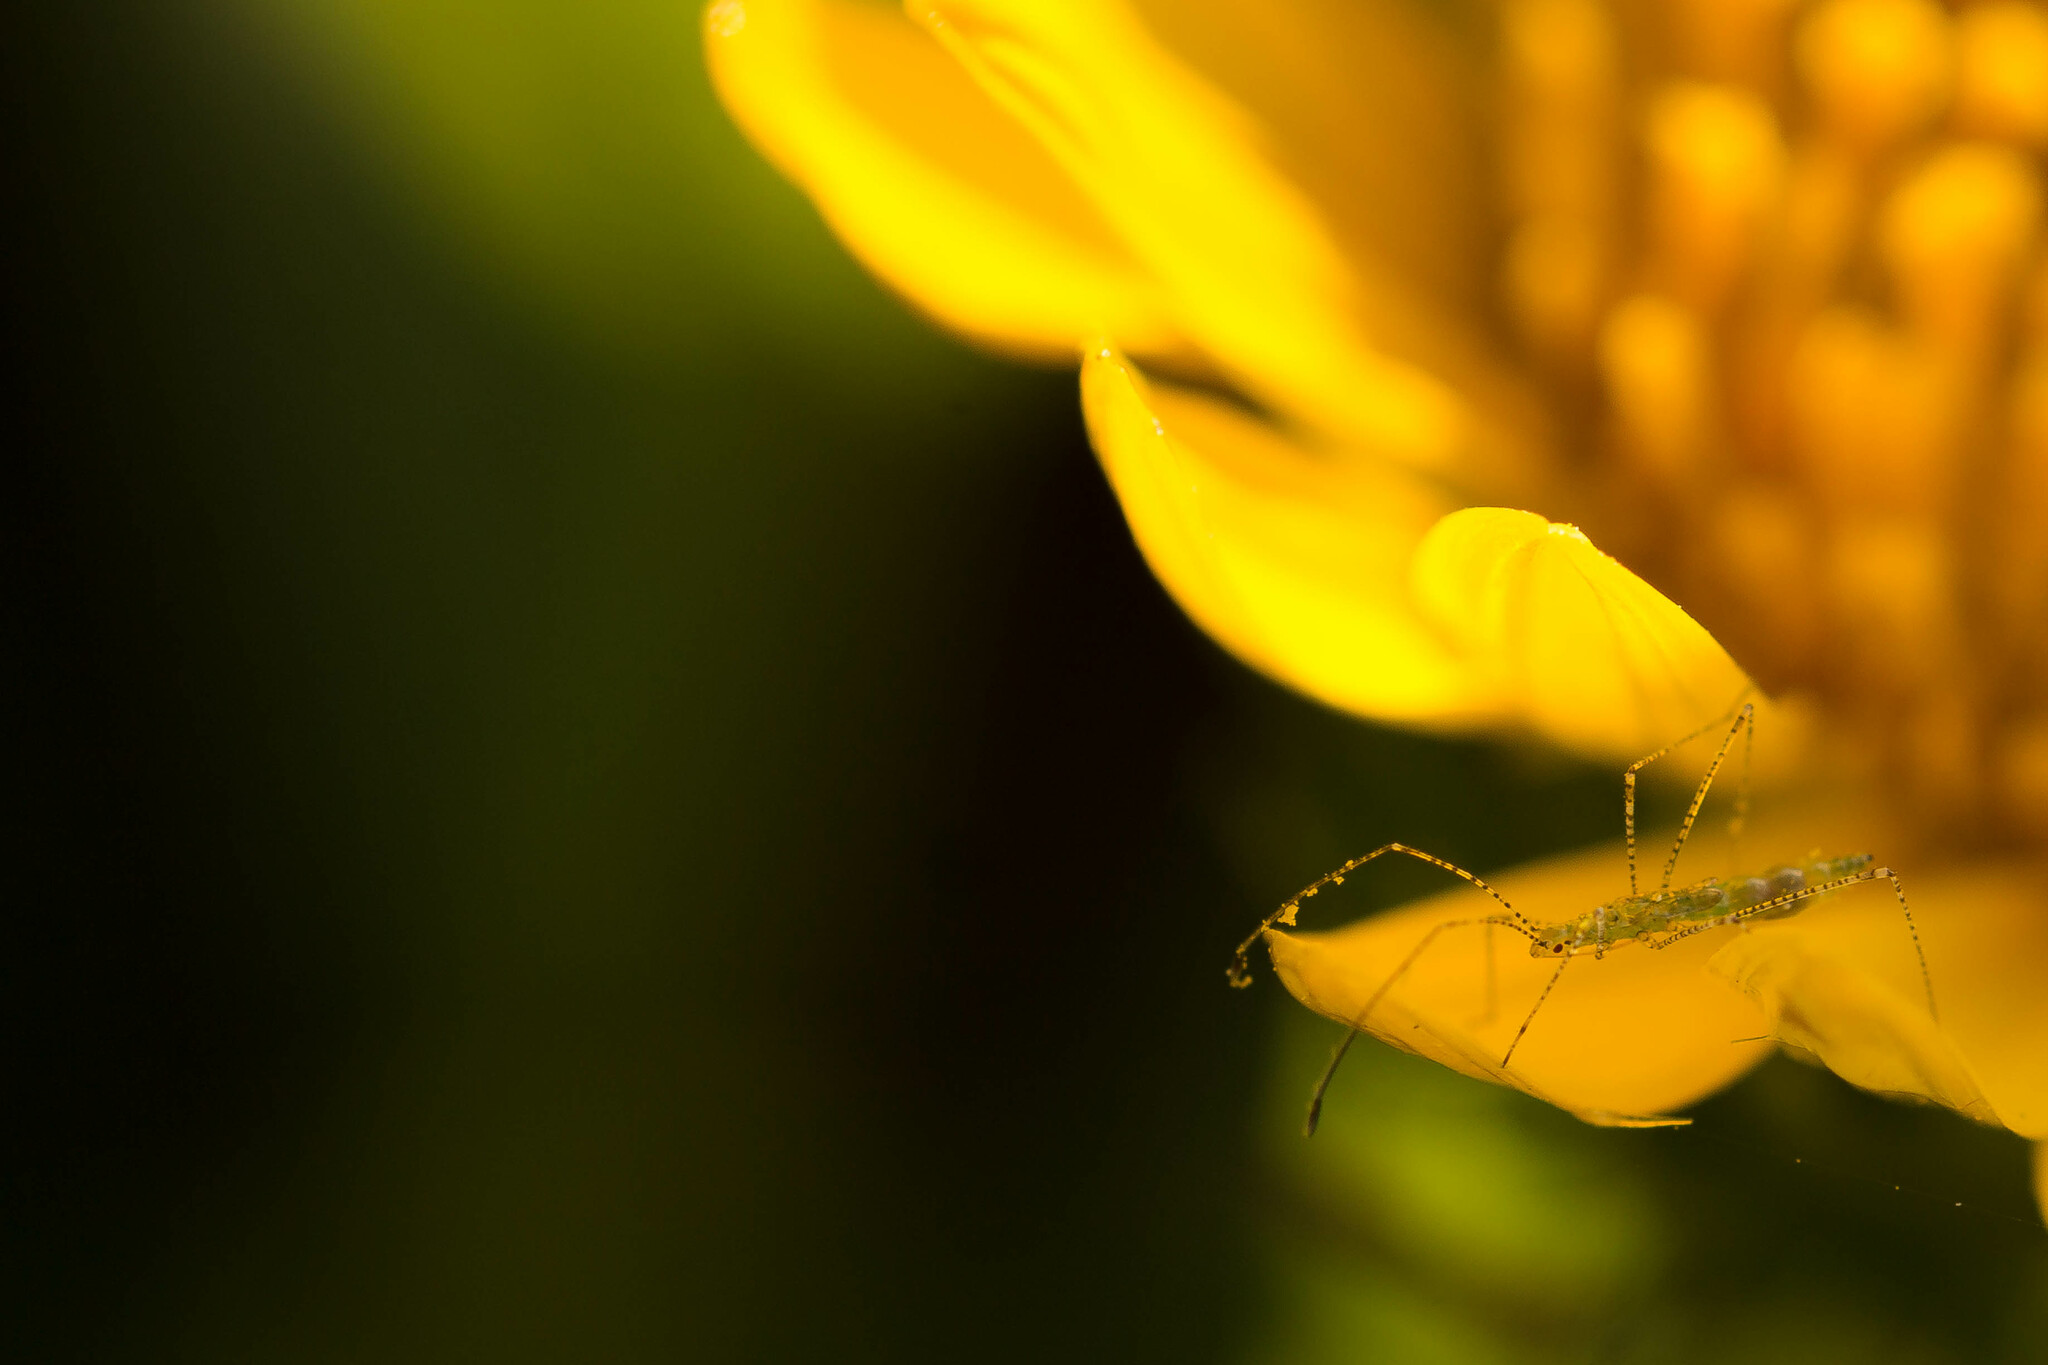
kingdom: Animalia
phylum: Arthropoda
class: Insecta
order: Hemiptera
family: Berytidae
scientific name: Berytidae
